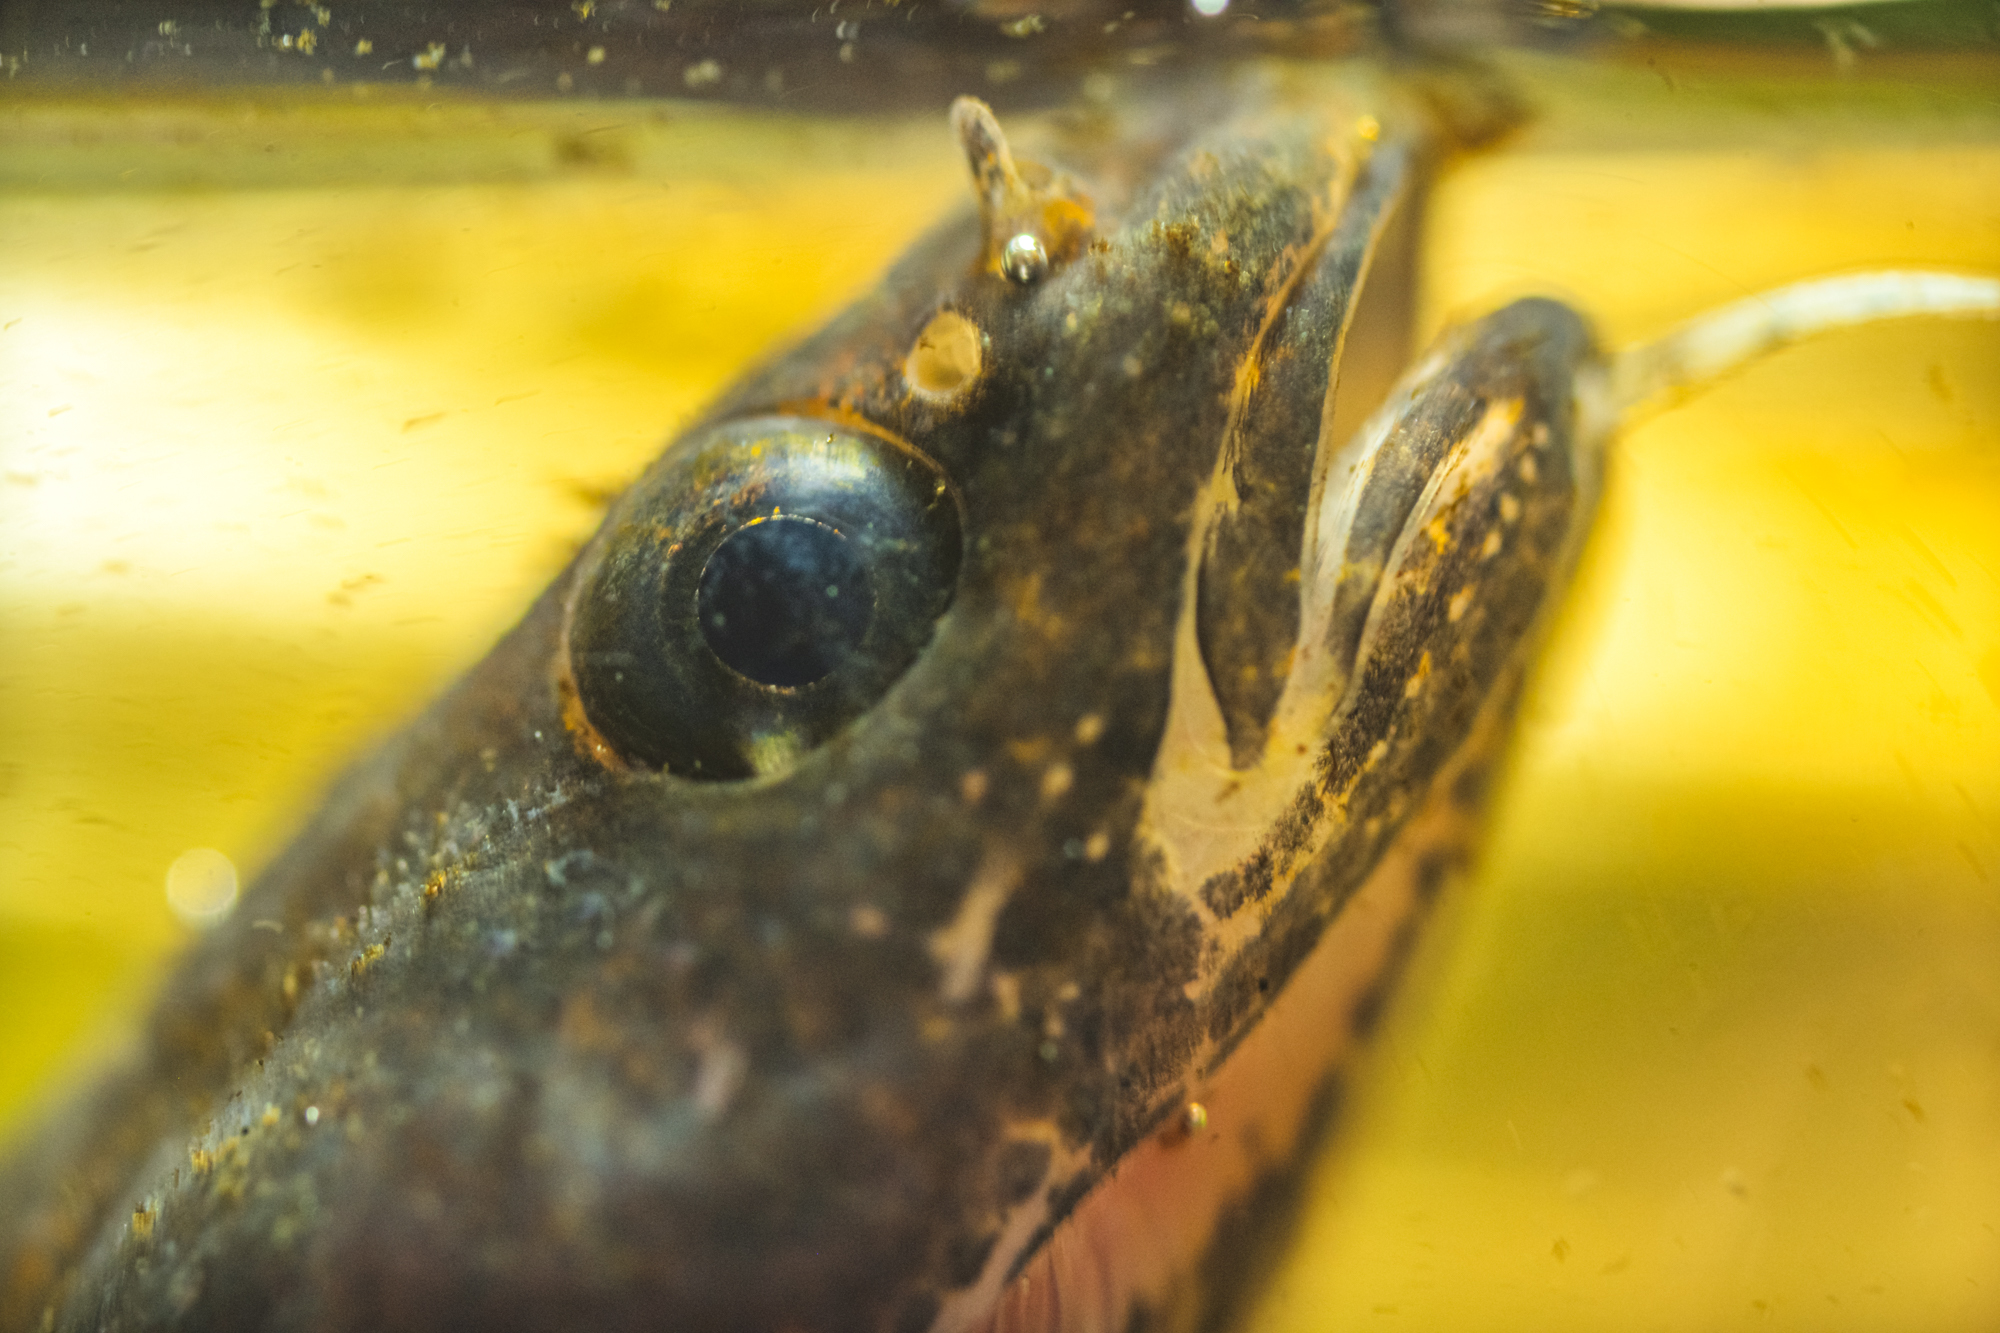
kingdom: Animalia
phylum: Chordata
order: Gadiformes
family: Lotidae
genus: Lota
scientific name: Lota lota
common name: Burbot
